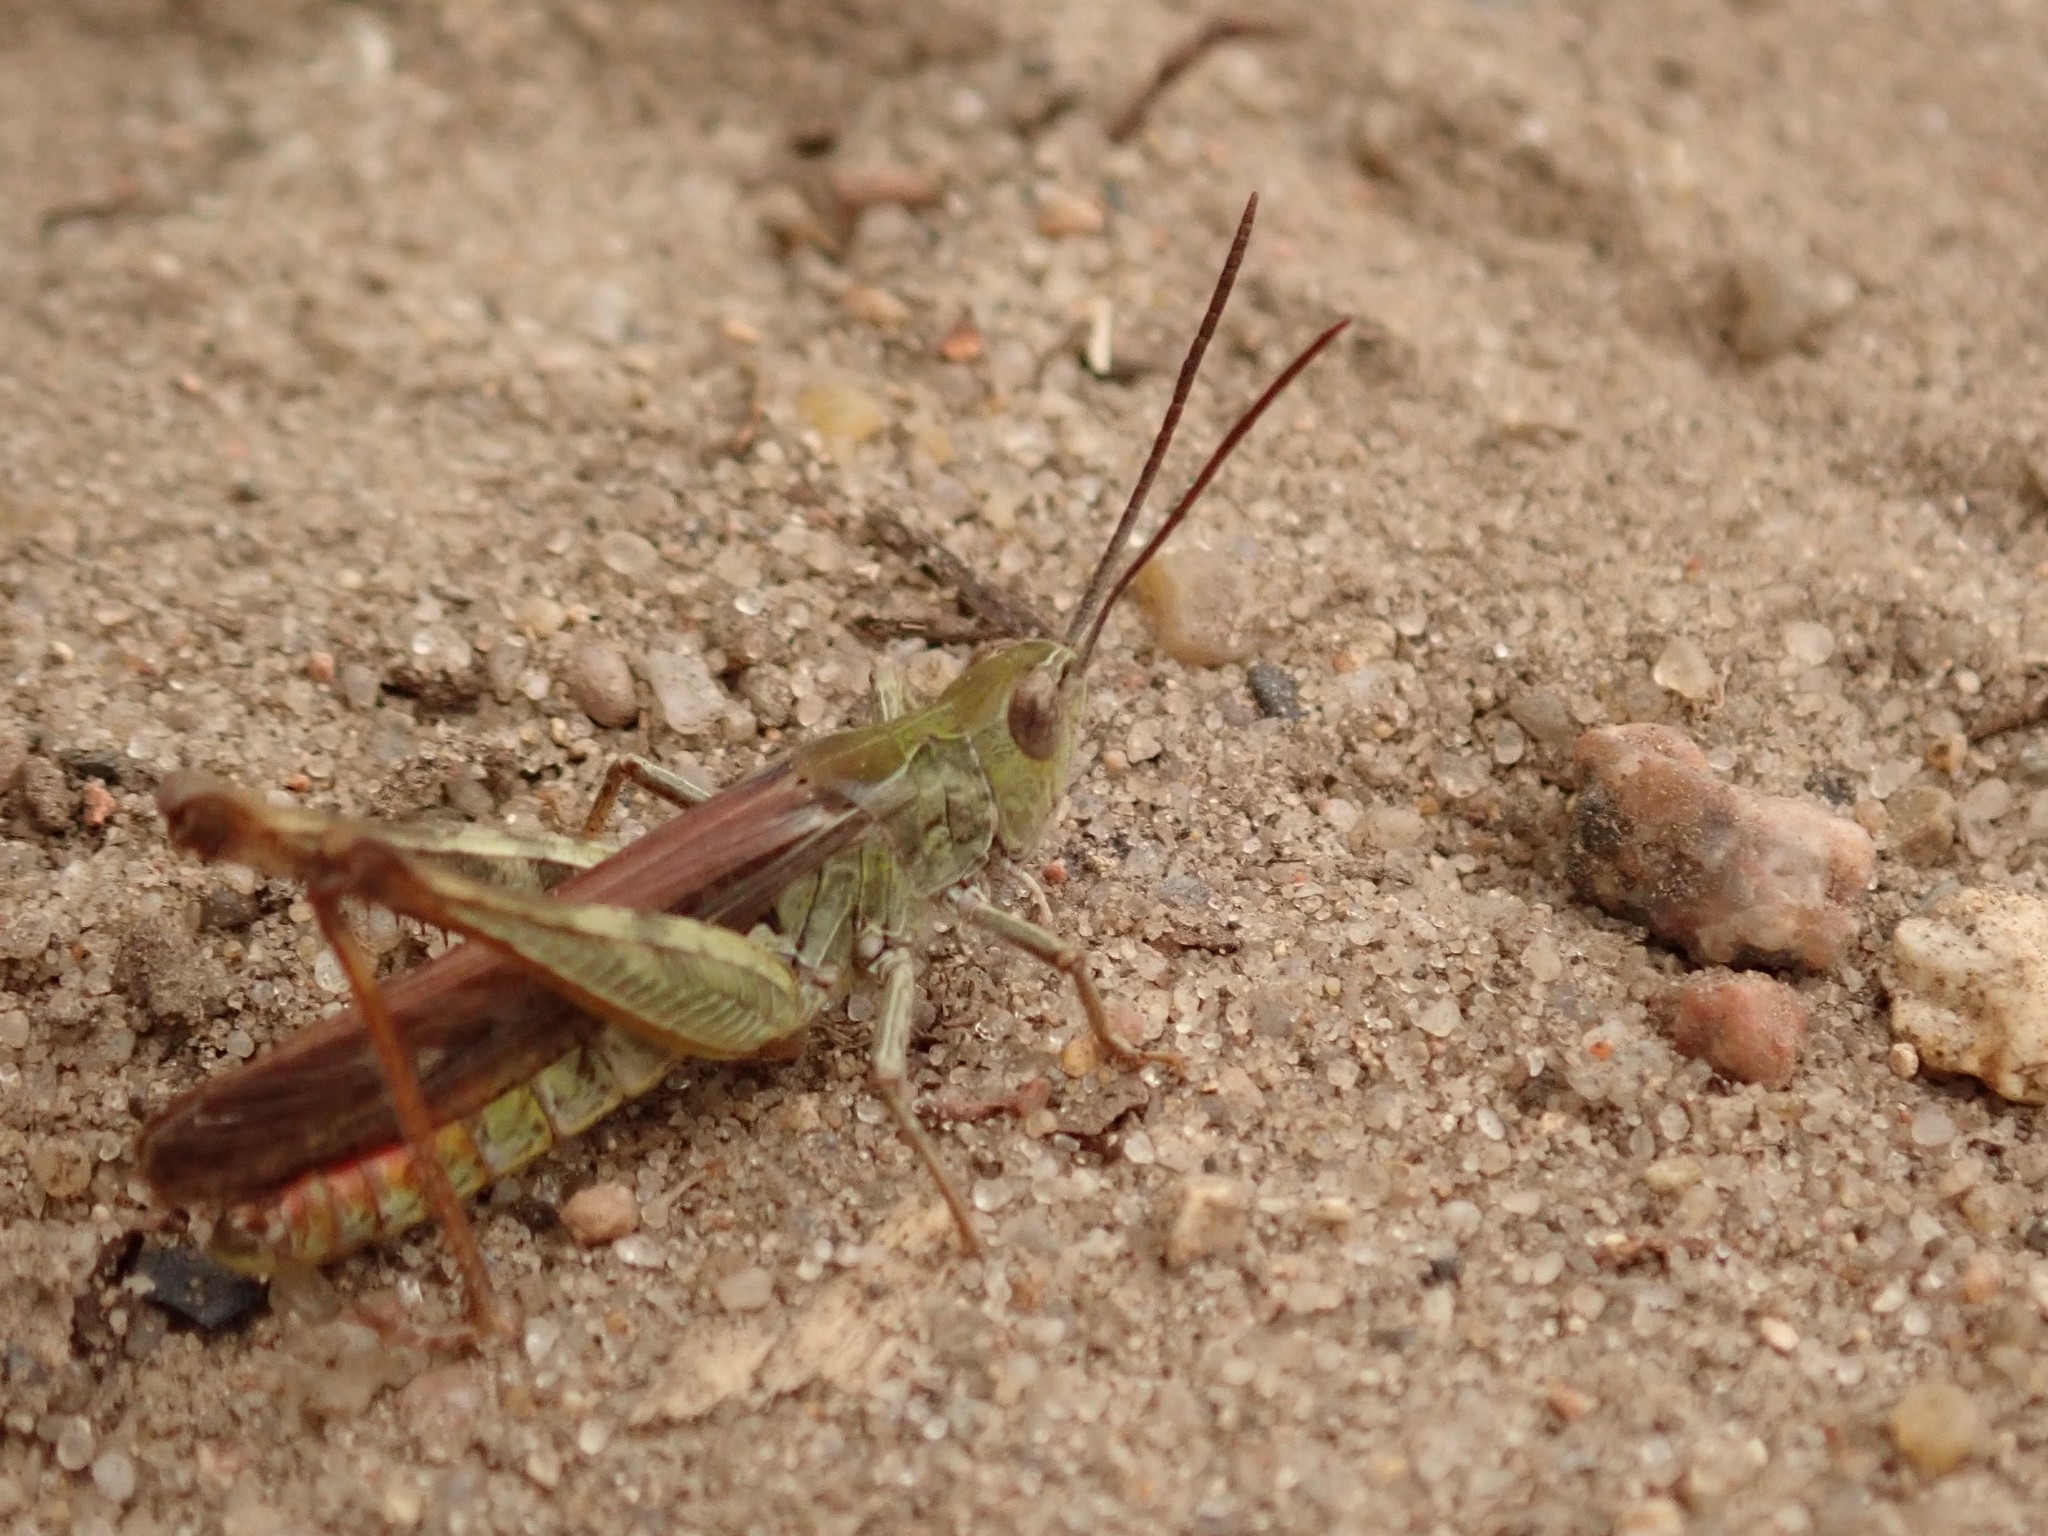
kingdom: Animalia
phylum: Arthropoda
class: Insecta
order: Orthoptera
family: Acrididae
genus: Chorthippus
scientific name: Chorthippus brunneus
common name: Field grasshopper
